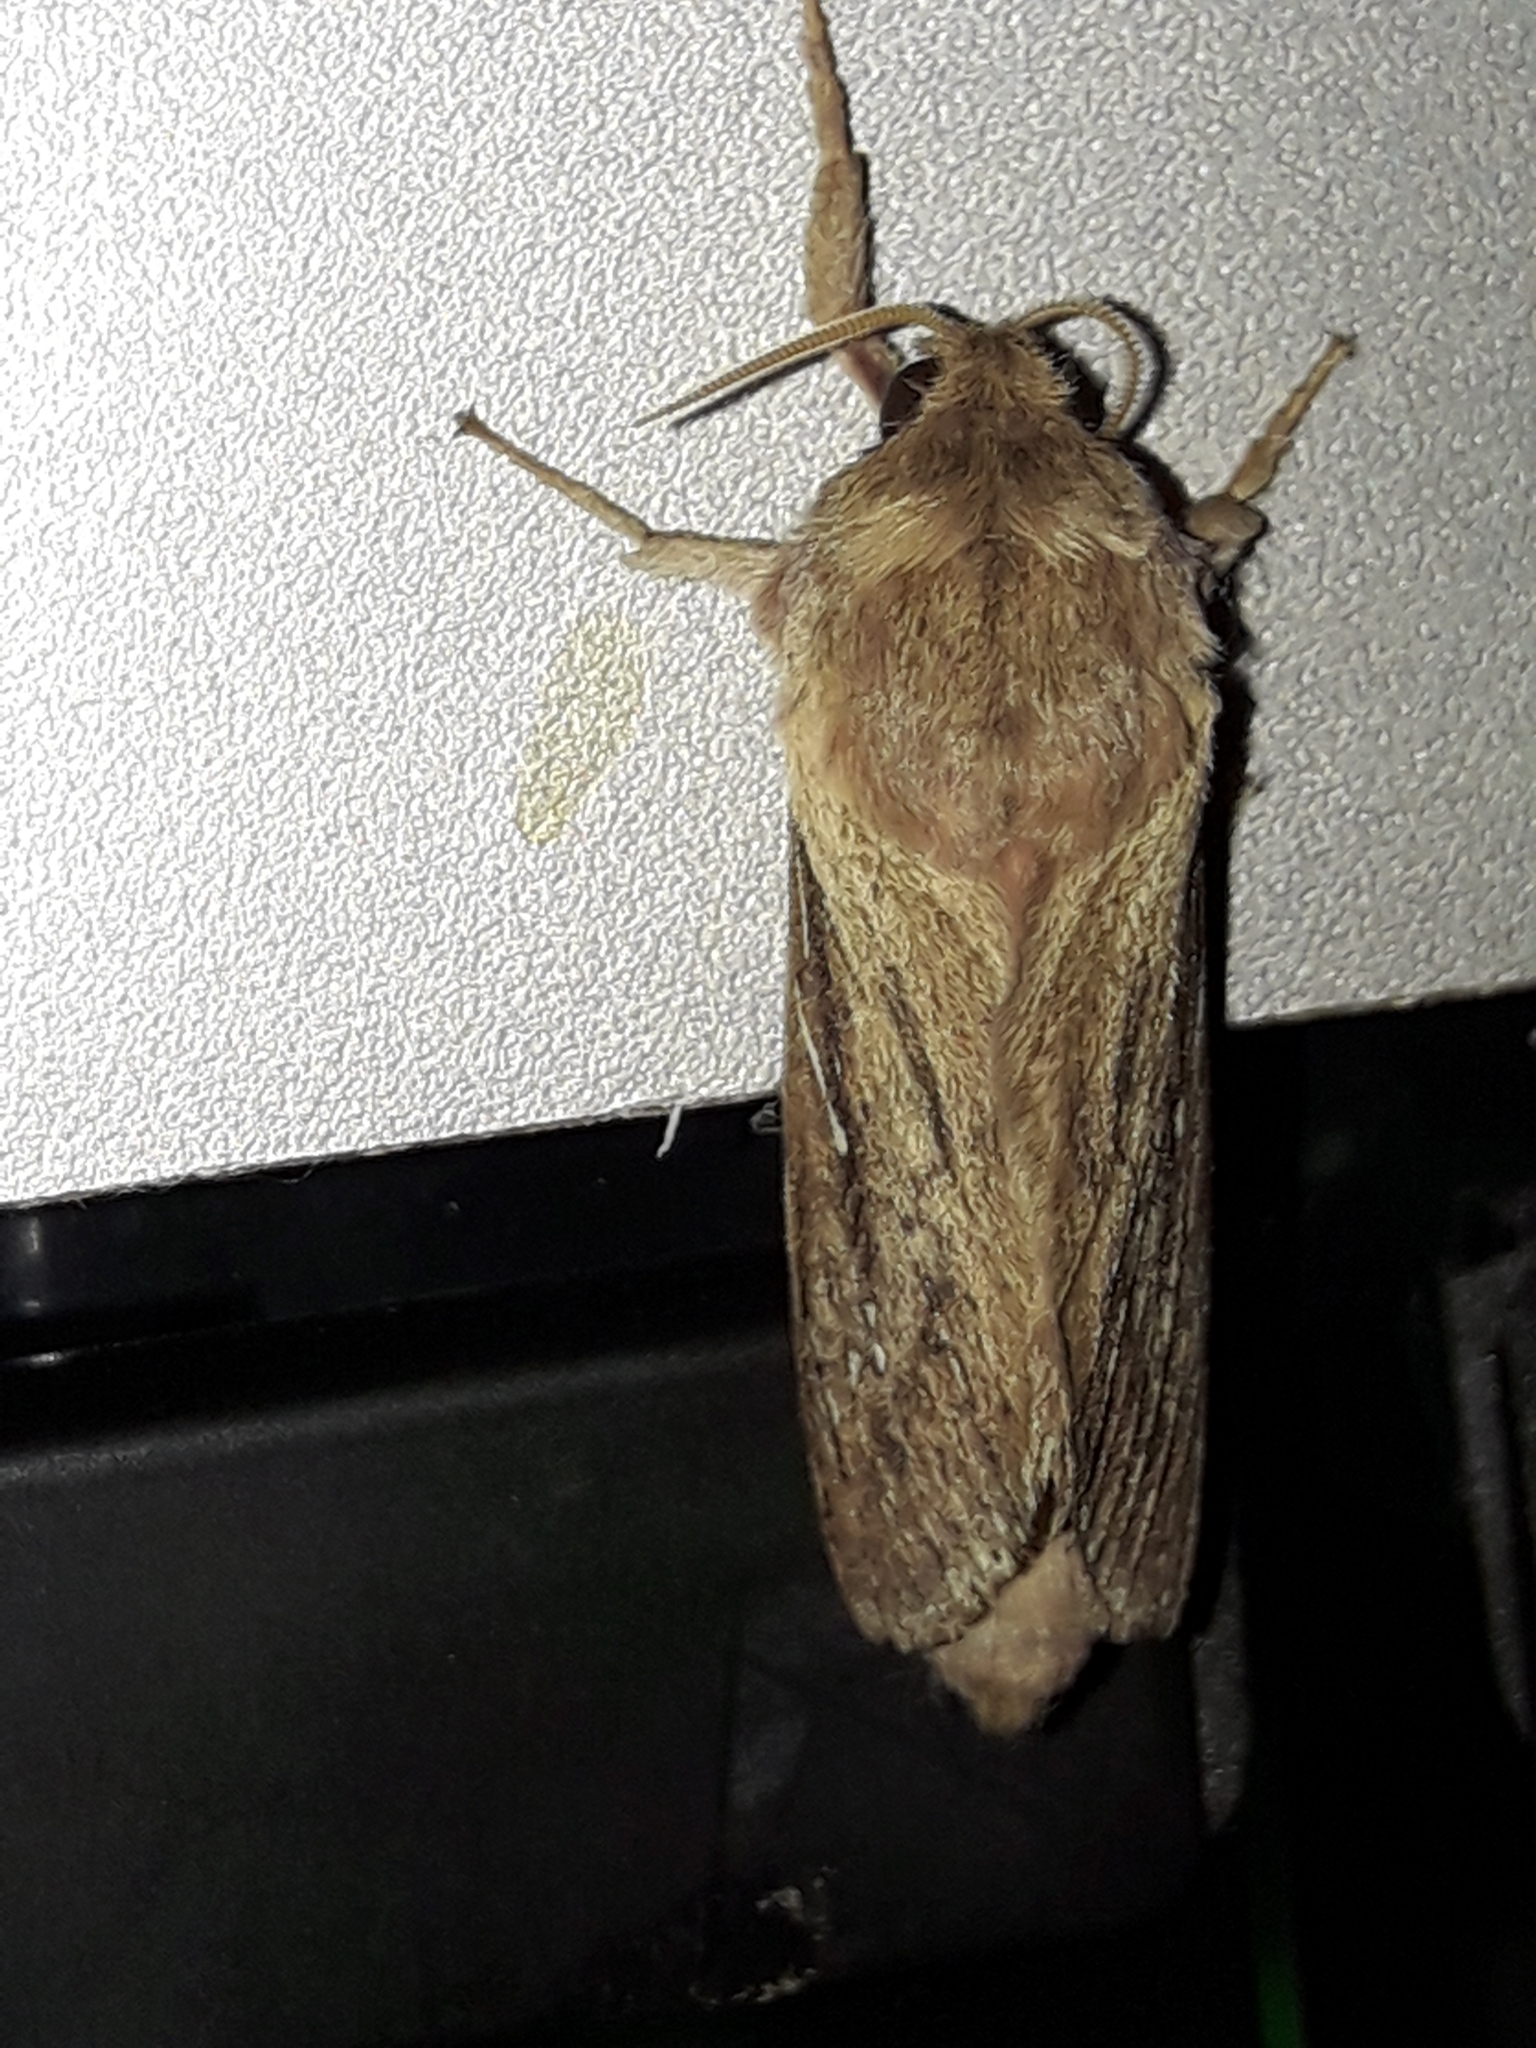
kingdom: Animalia
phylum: Arthropoda
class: Insecta
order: Lepidoptera
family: Hepialidae
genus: Wiseana
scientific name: Wiseana signata
